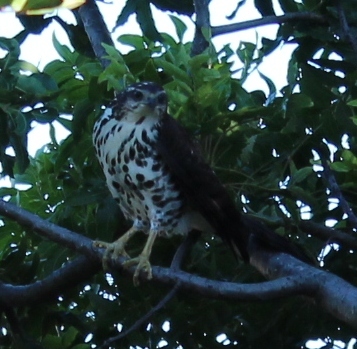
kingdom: Animalia
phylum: Chordata
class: Aves
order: Accipitriformes
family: Accipitridae
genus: Accipiter
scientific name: Accipiter tachiro
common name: African goshawk
